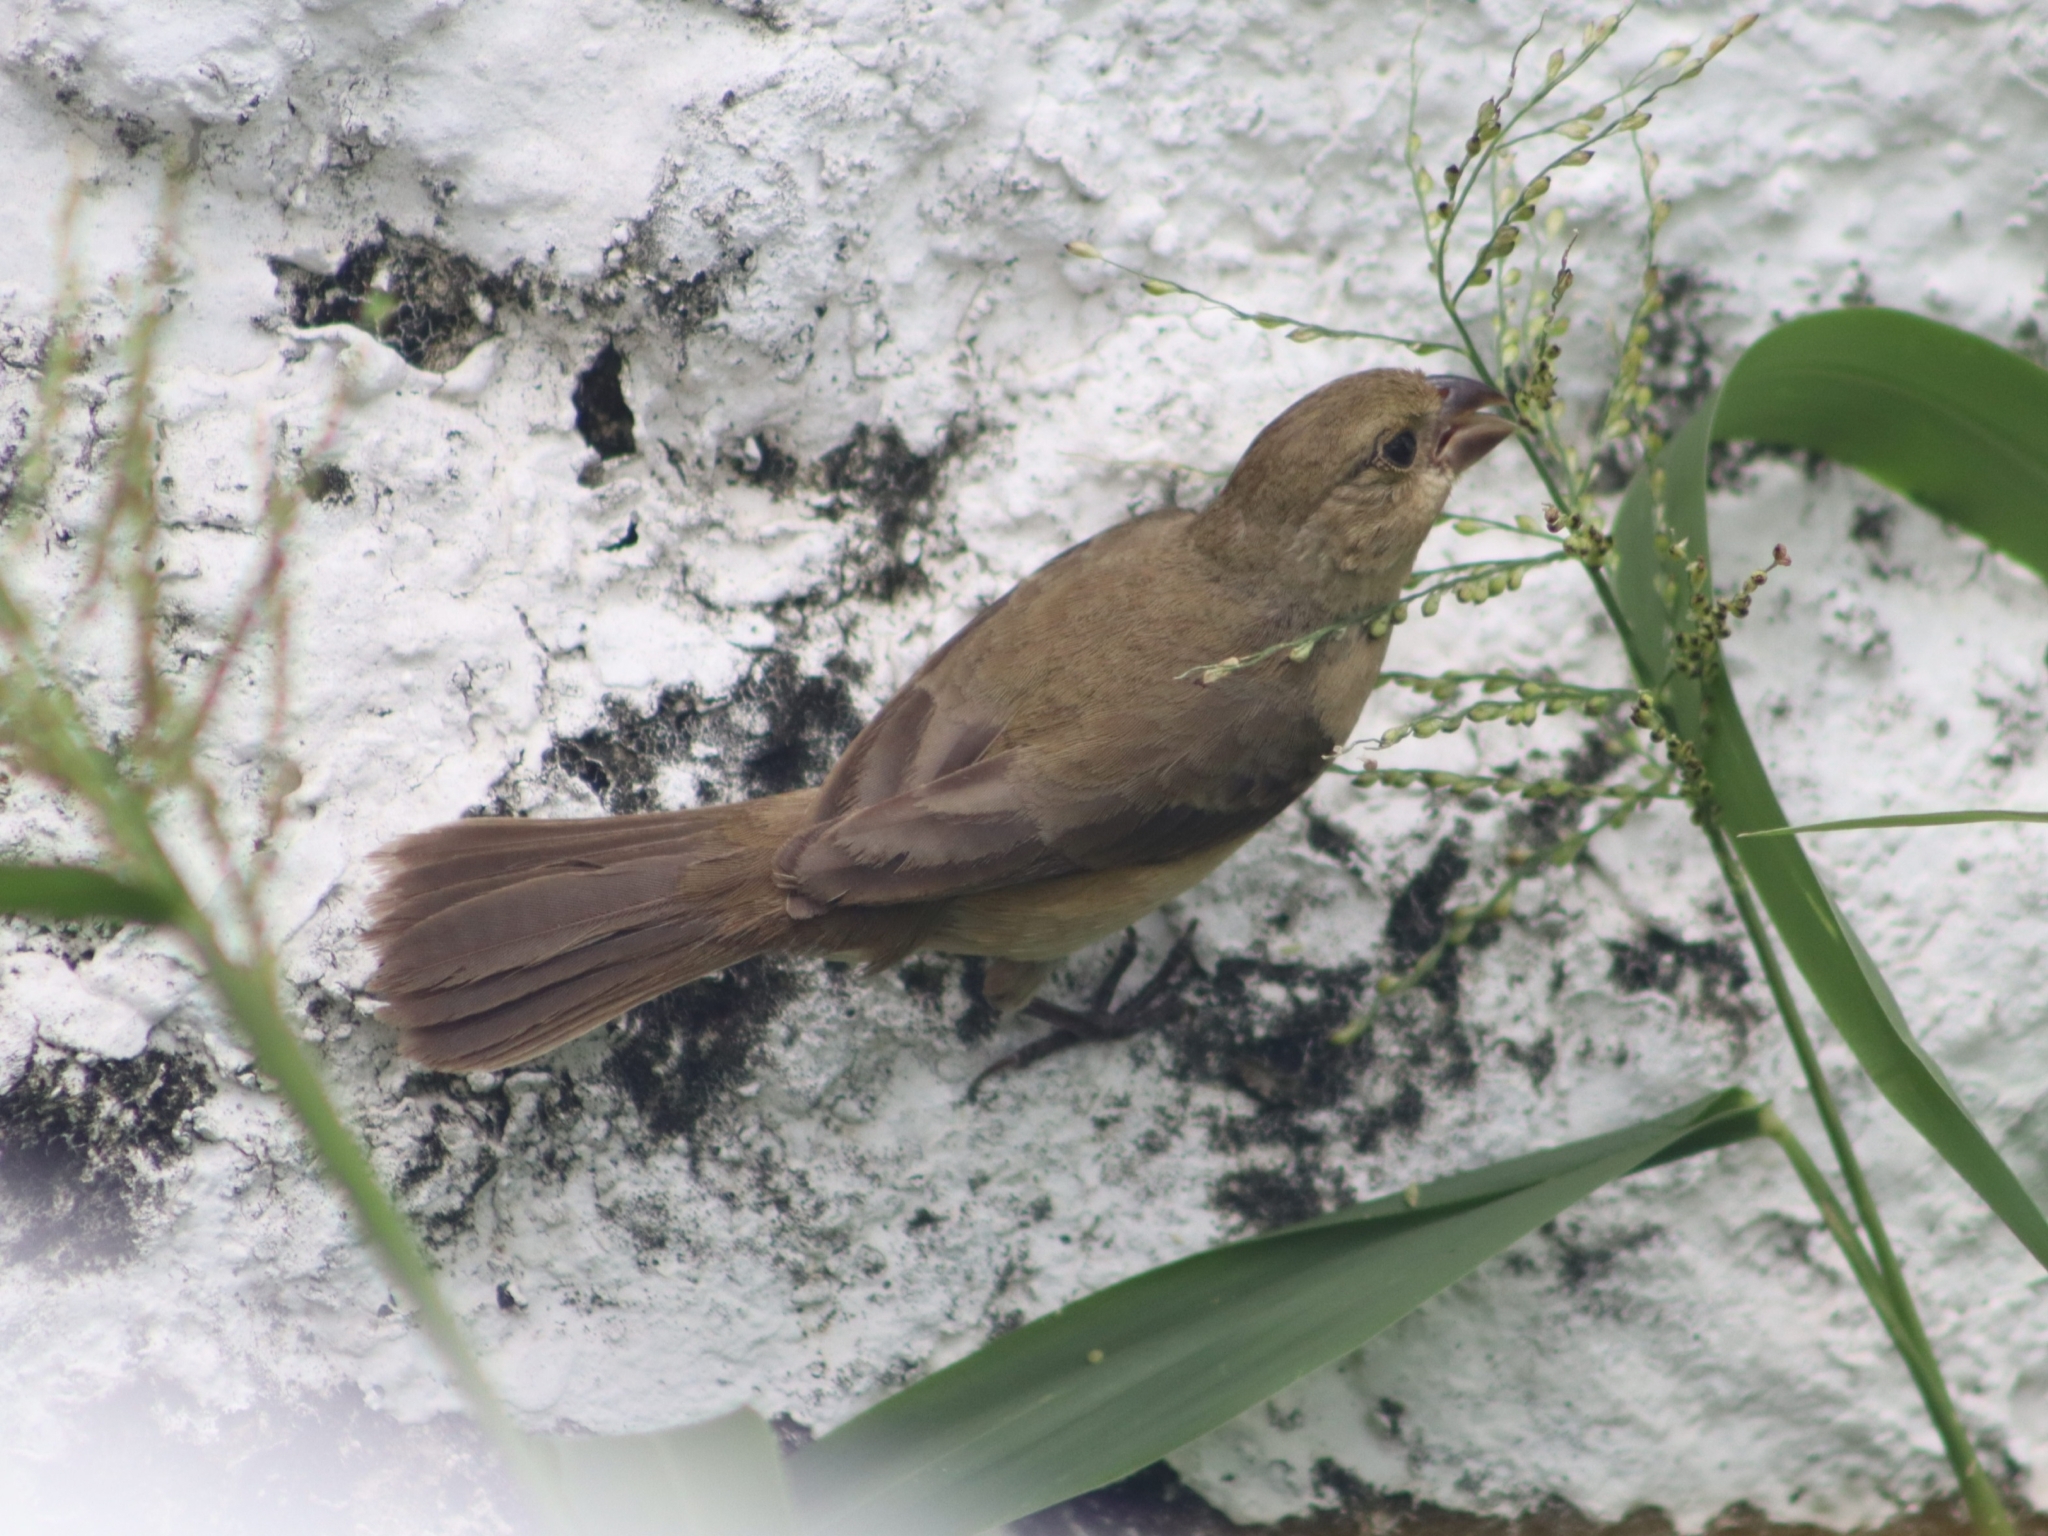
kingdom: Animalia
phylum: Chordata
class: Aves
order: Passeriformes
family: Thraupidae
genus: Sporophila
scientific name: Sporophila torqueola
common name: White-collared seedeater
